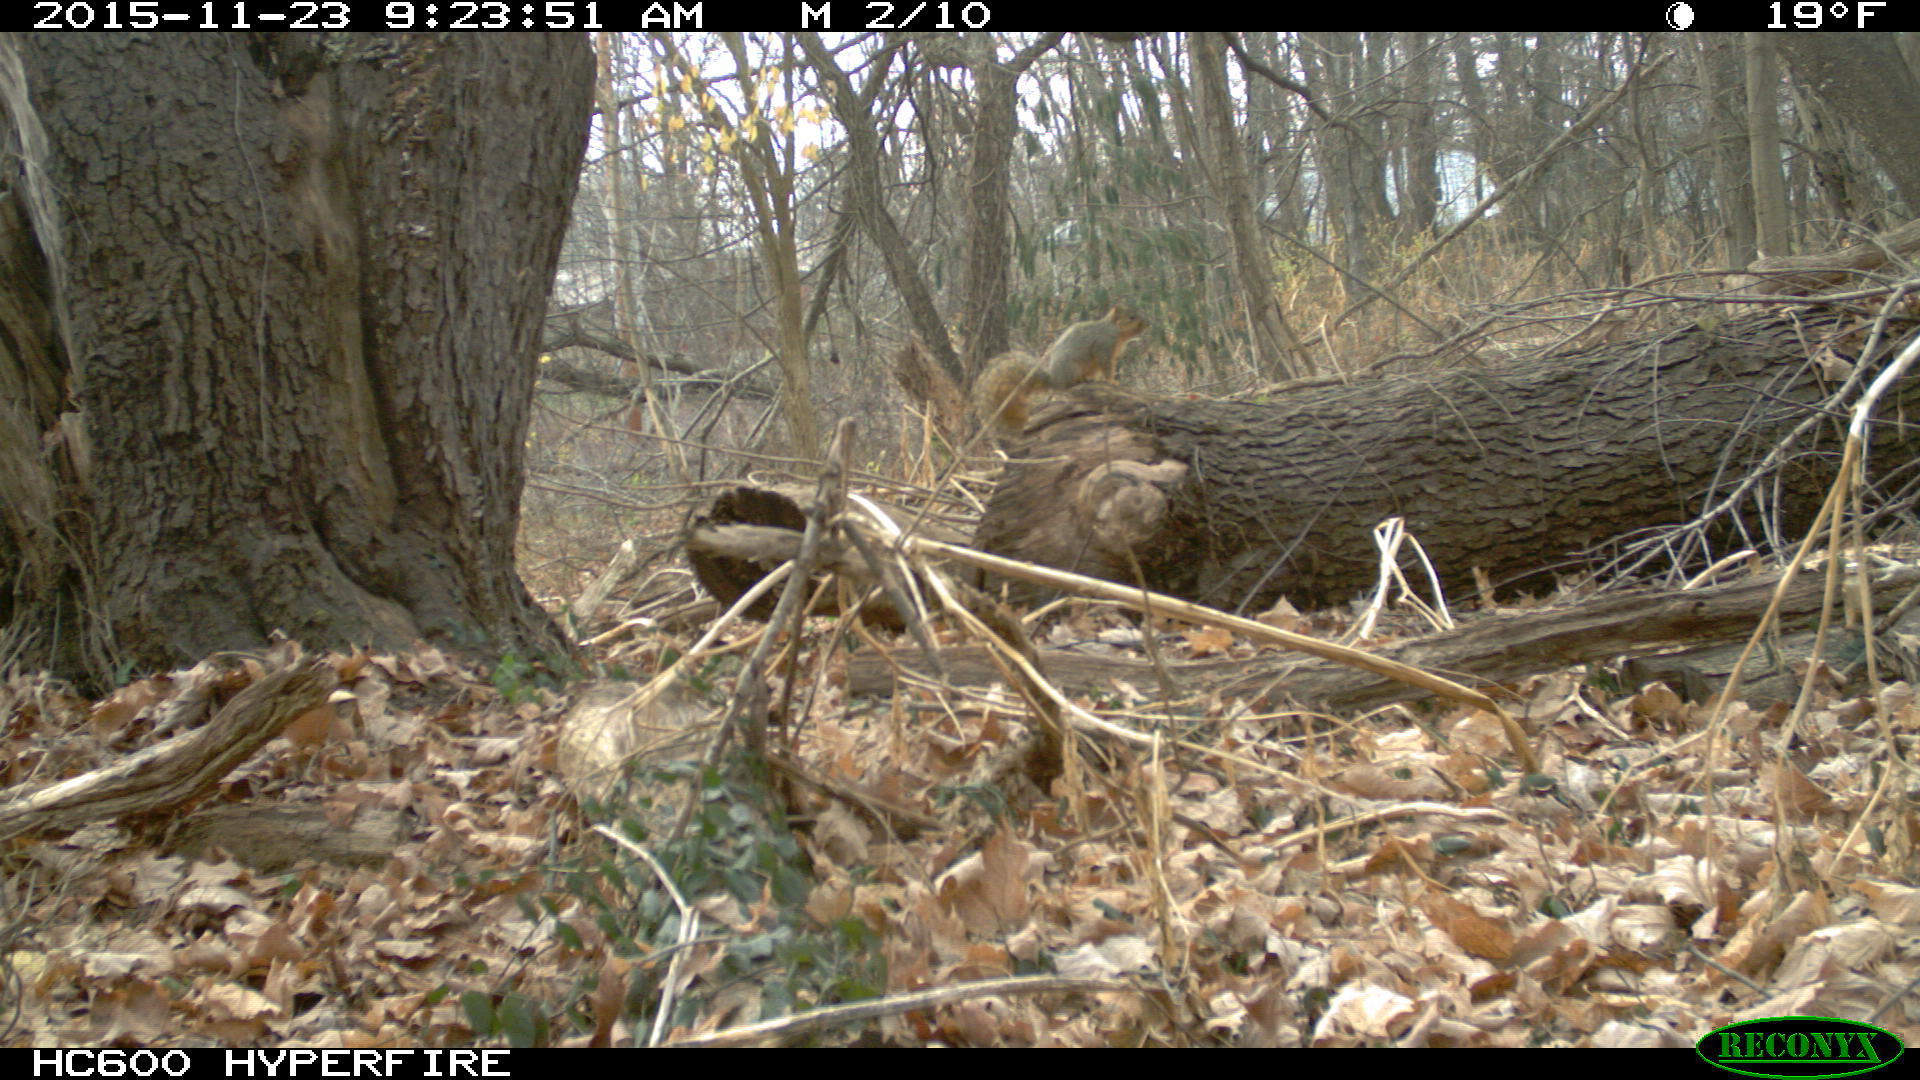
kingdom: Animalia
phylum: Chordata
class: Mammalia
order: Rodentia
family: Sciuridae
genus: Sciurus
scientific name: Sciurus niger
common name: Fox squirrel
